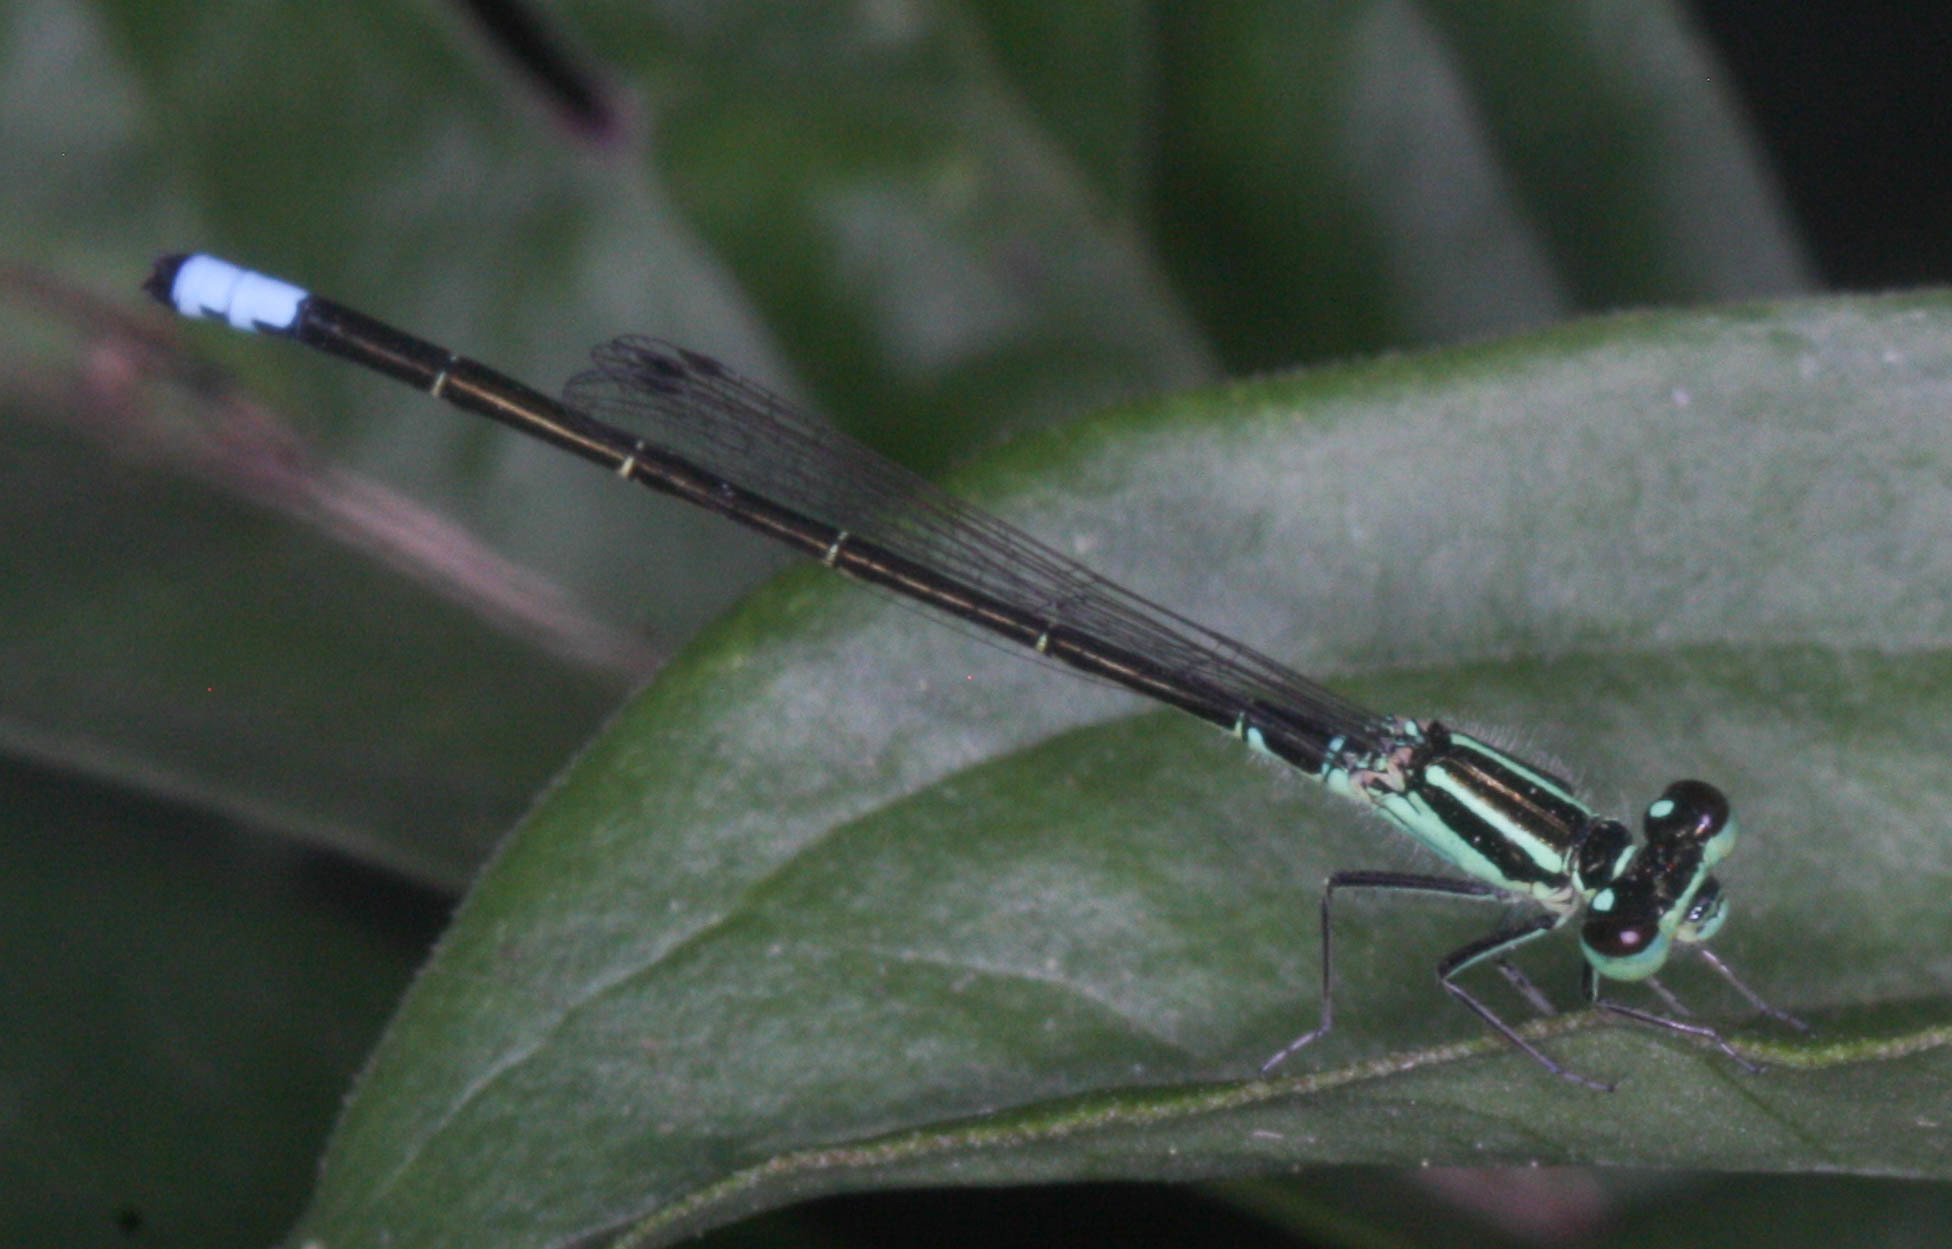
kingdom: Animalia
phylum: Arthropoda
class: Insecta
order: Odonata
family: Coenagrionidae
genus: Ischnura
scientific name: Ischnura verticalis
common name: Eastern forktail
